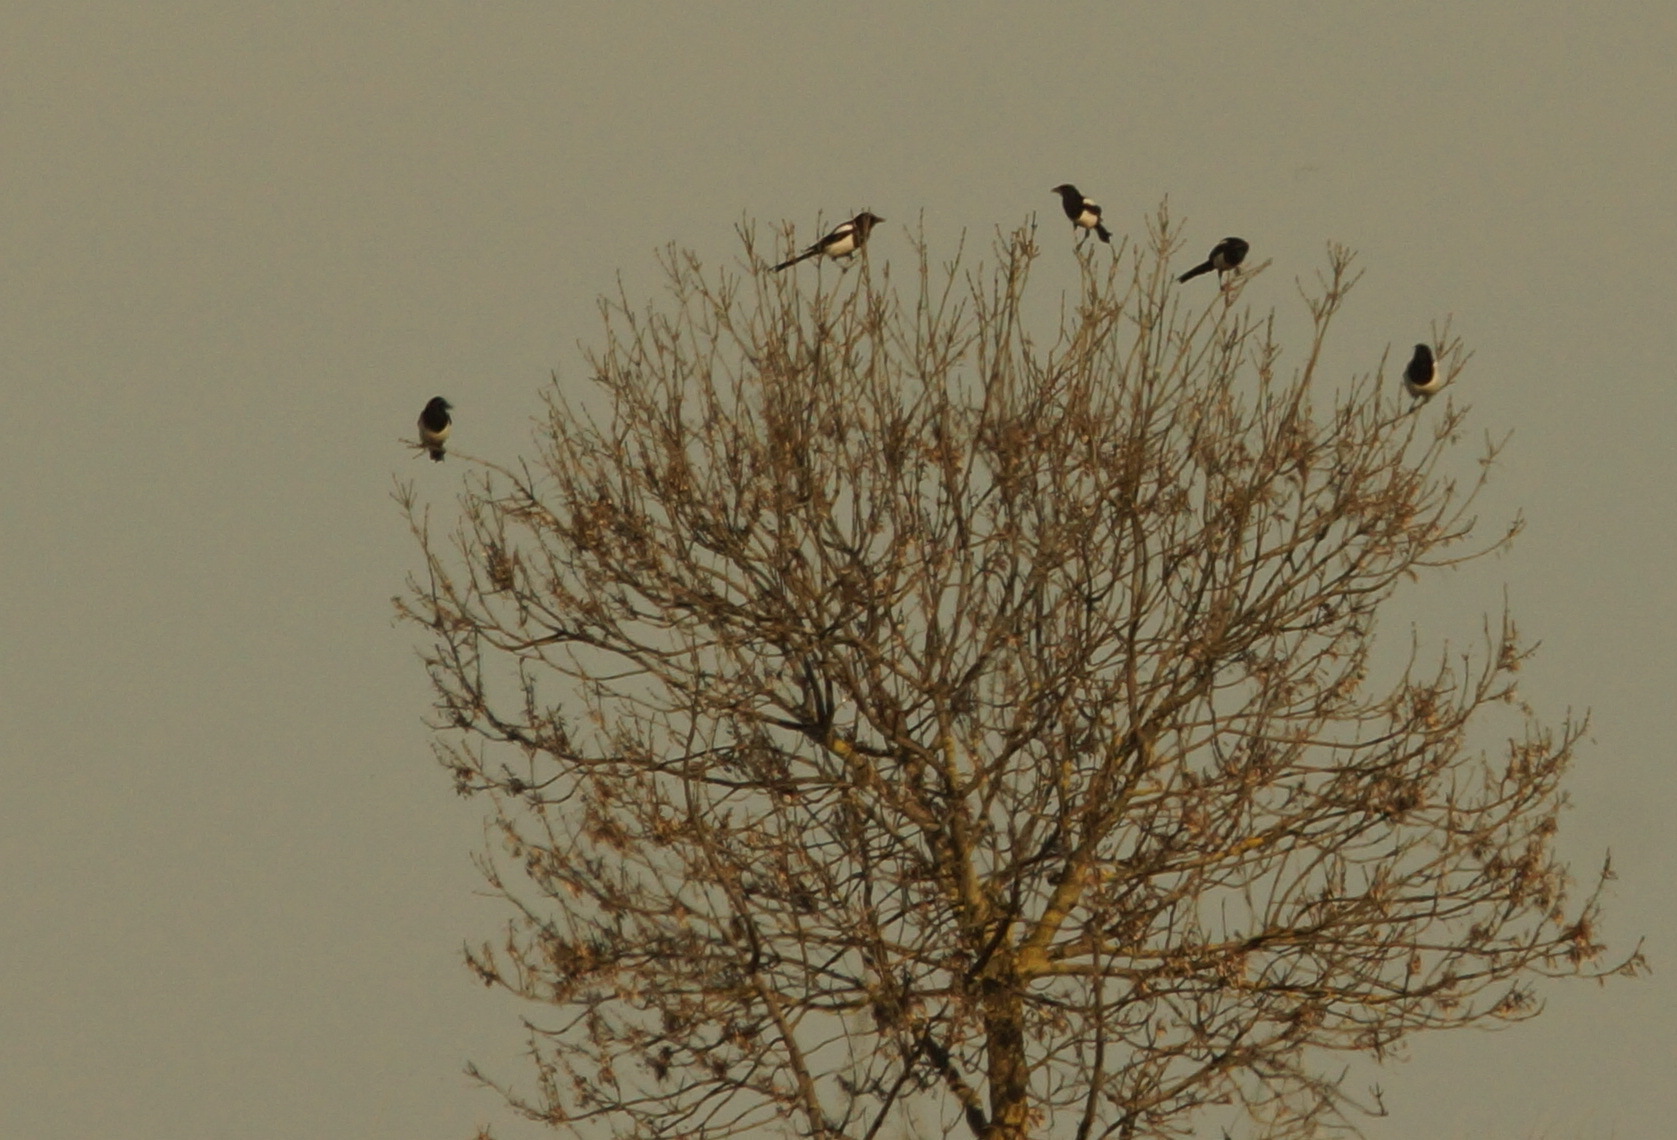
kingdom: Animalia
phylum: Chordata
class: Aves
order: Passeriformes
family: Corvidae
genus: Pica
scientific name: Pica pica
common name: Eurasian magpie
